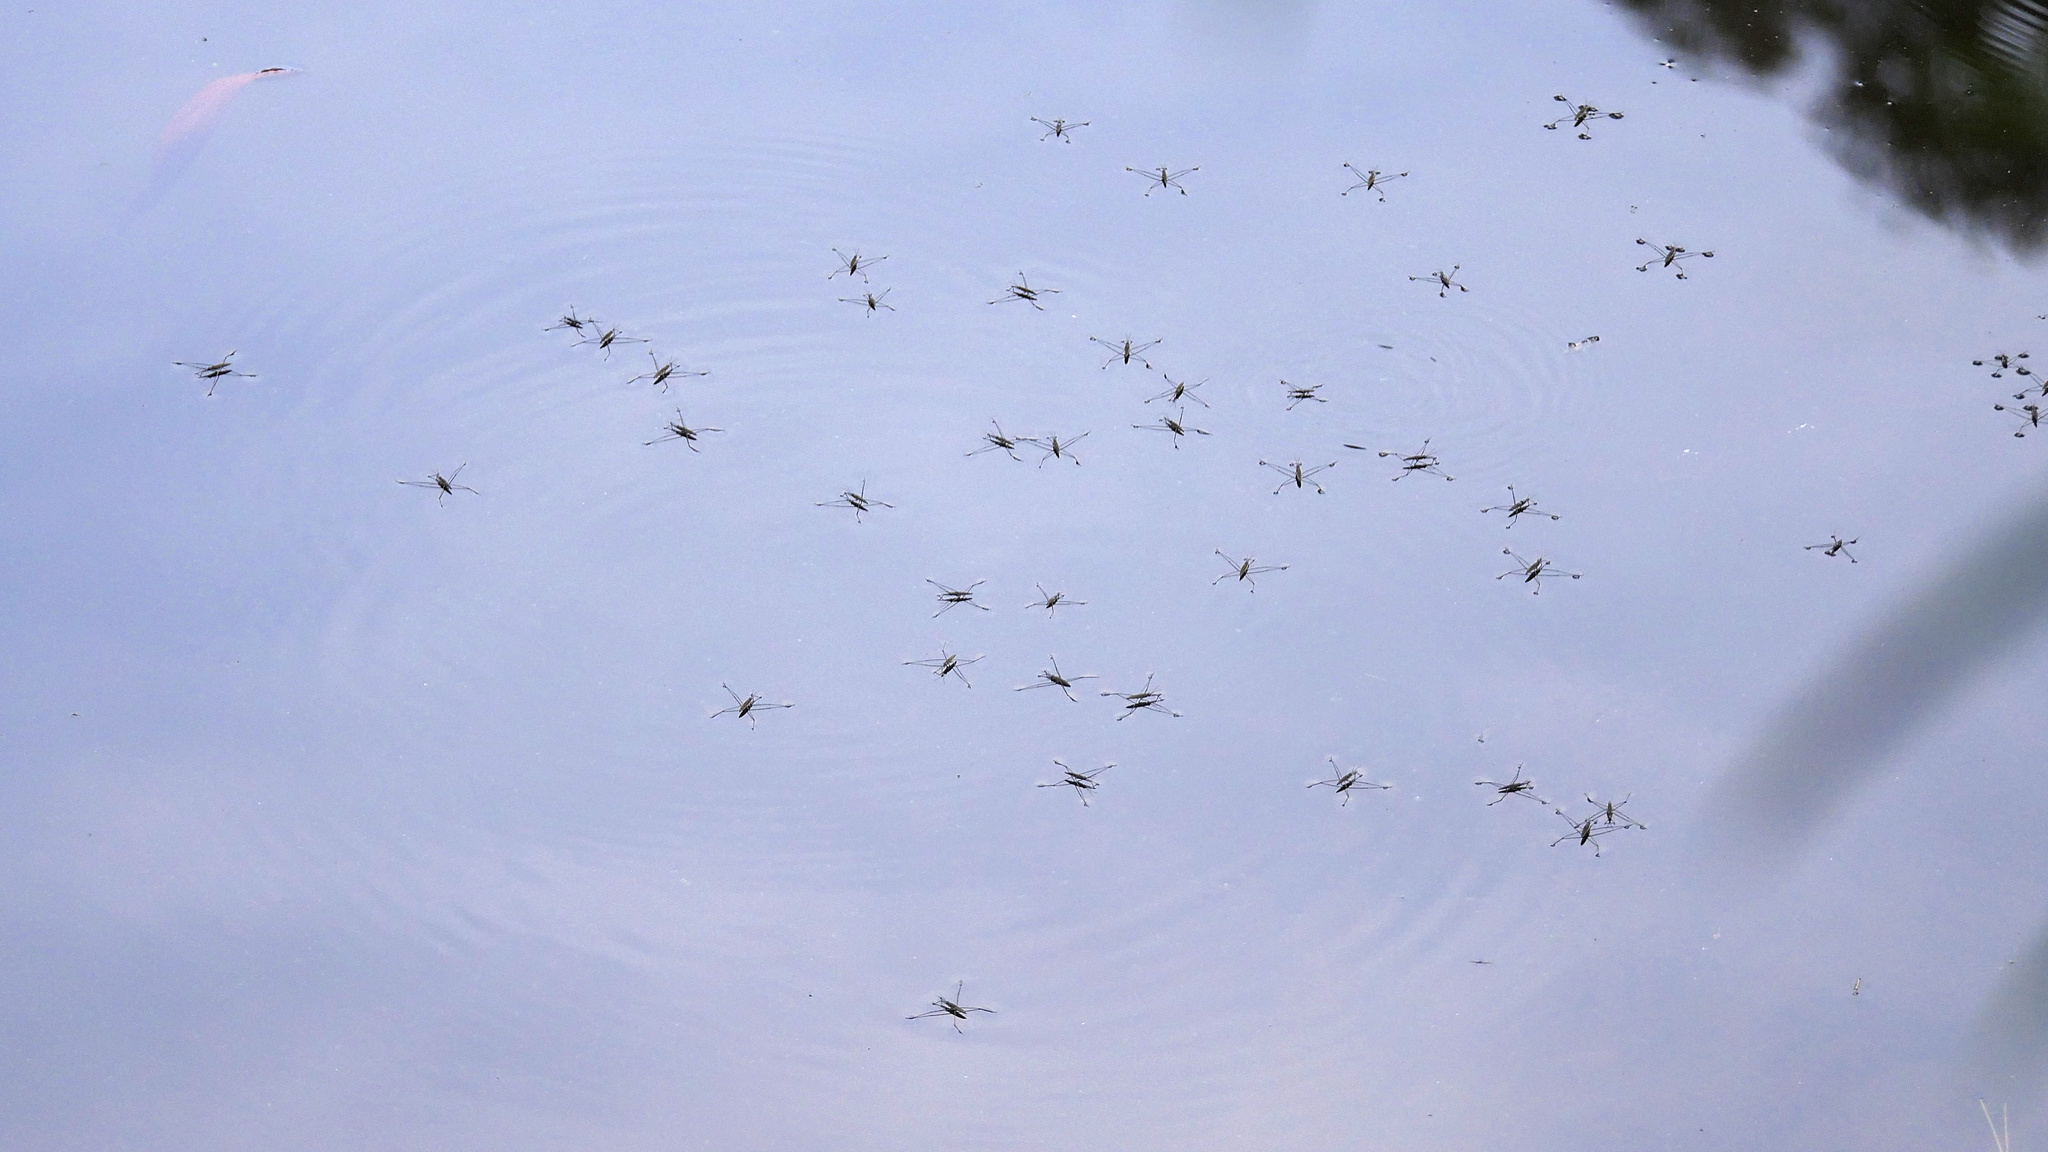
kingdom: Animalia
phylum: Arthropoda
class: Insecta
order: Hemiptera
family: Gerridae
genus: Aquarius
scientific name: Aquarius antigone
